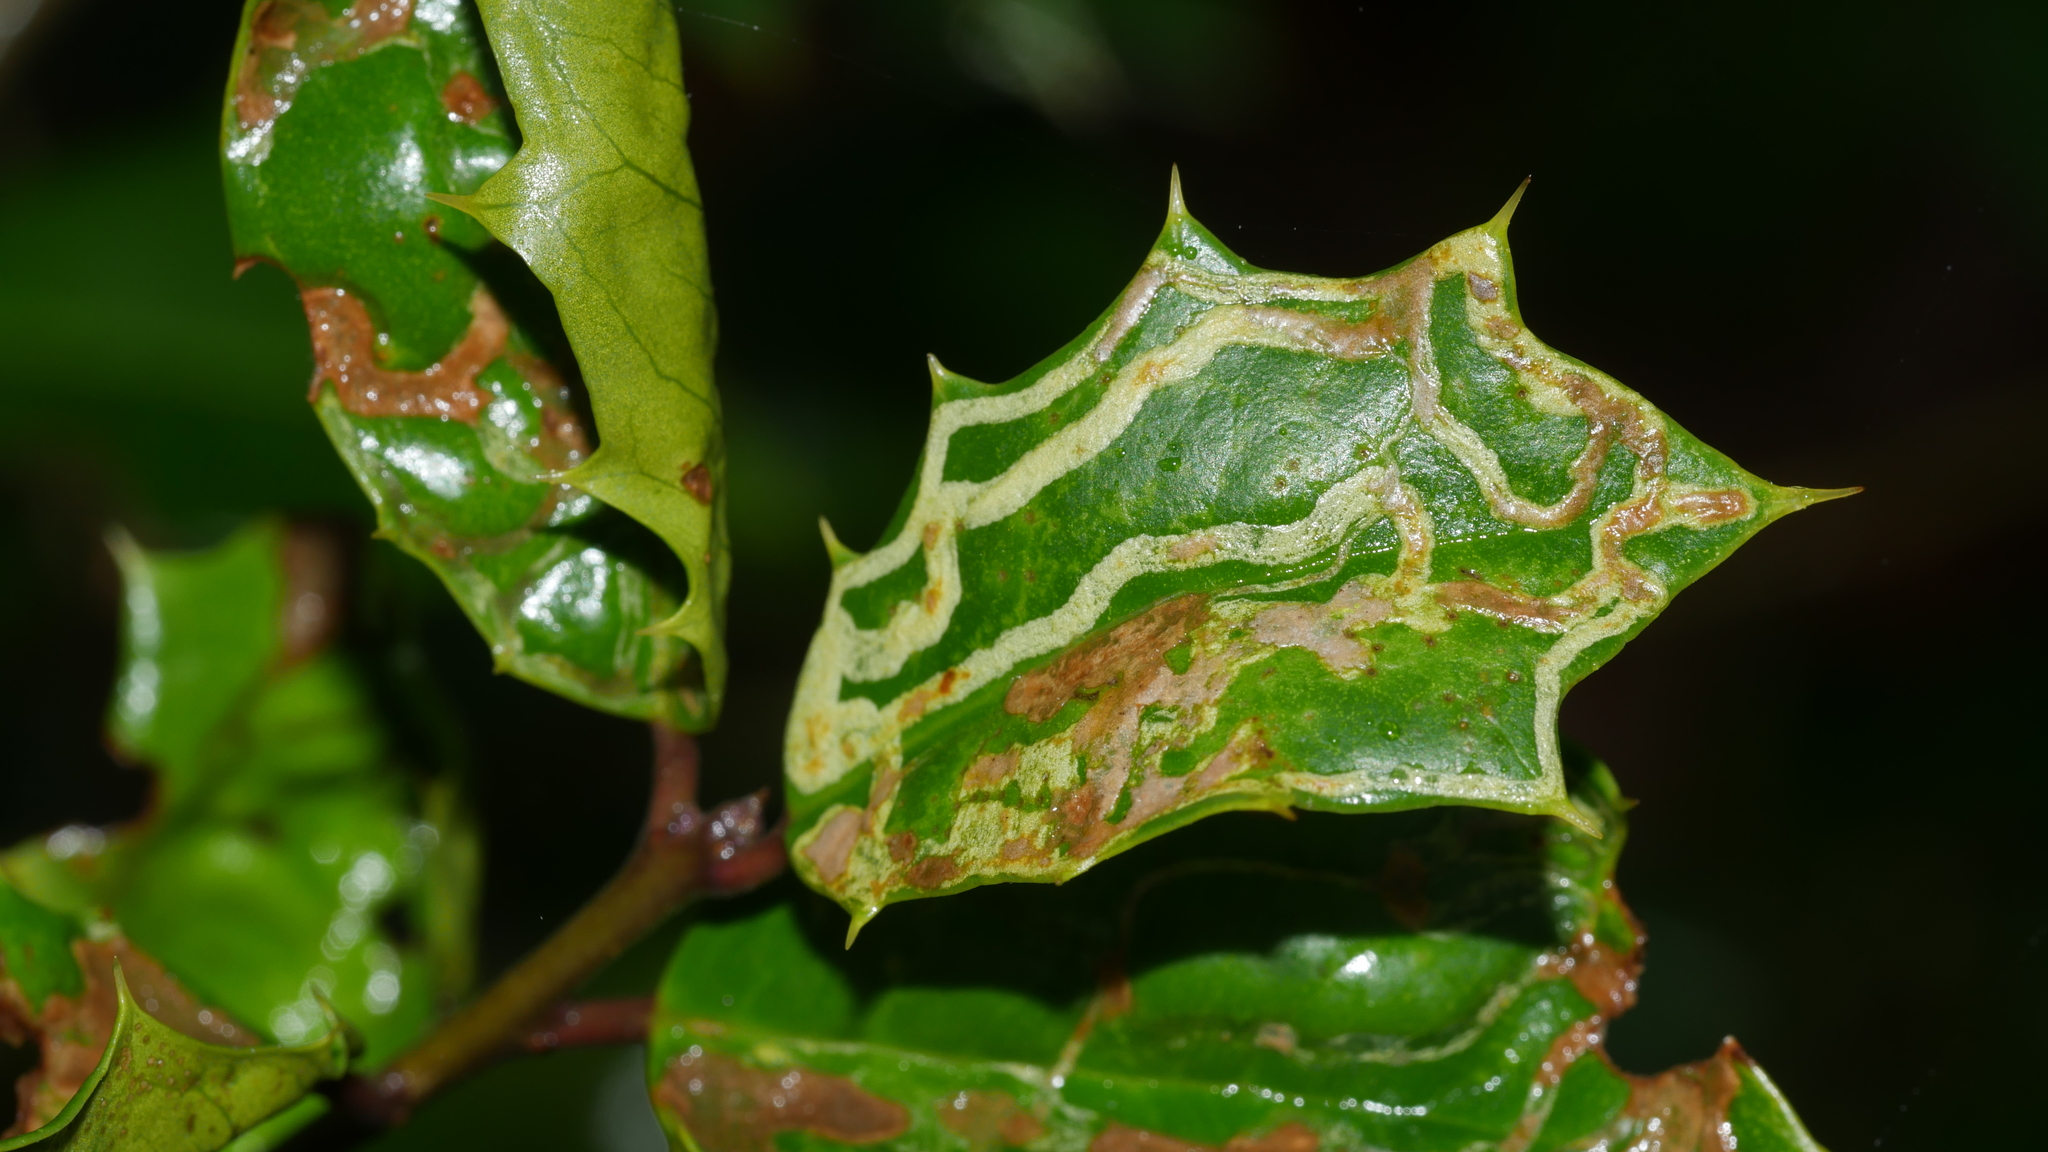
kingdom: Animalia
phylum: Arthropoda
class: Insecta
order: Diptera
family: Agromyzidae
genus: Phytomyza
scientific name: Phytomyza opacae
